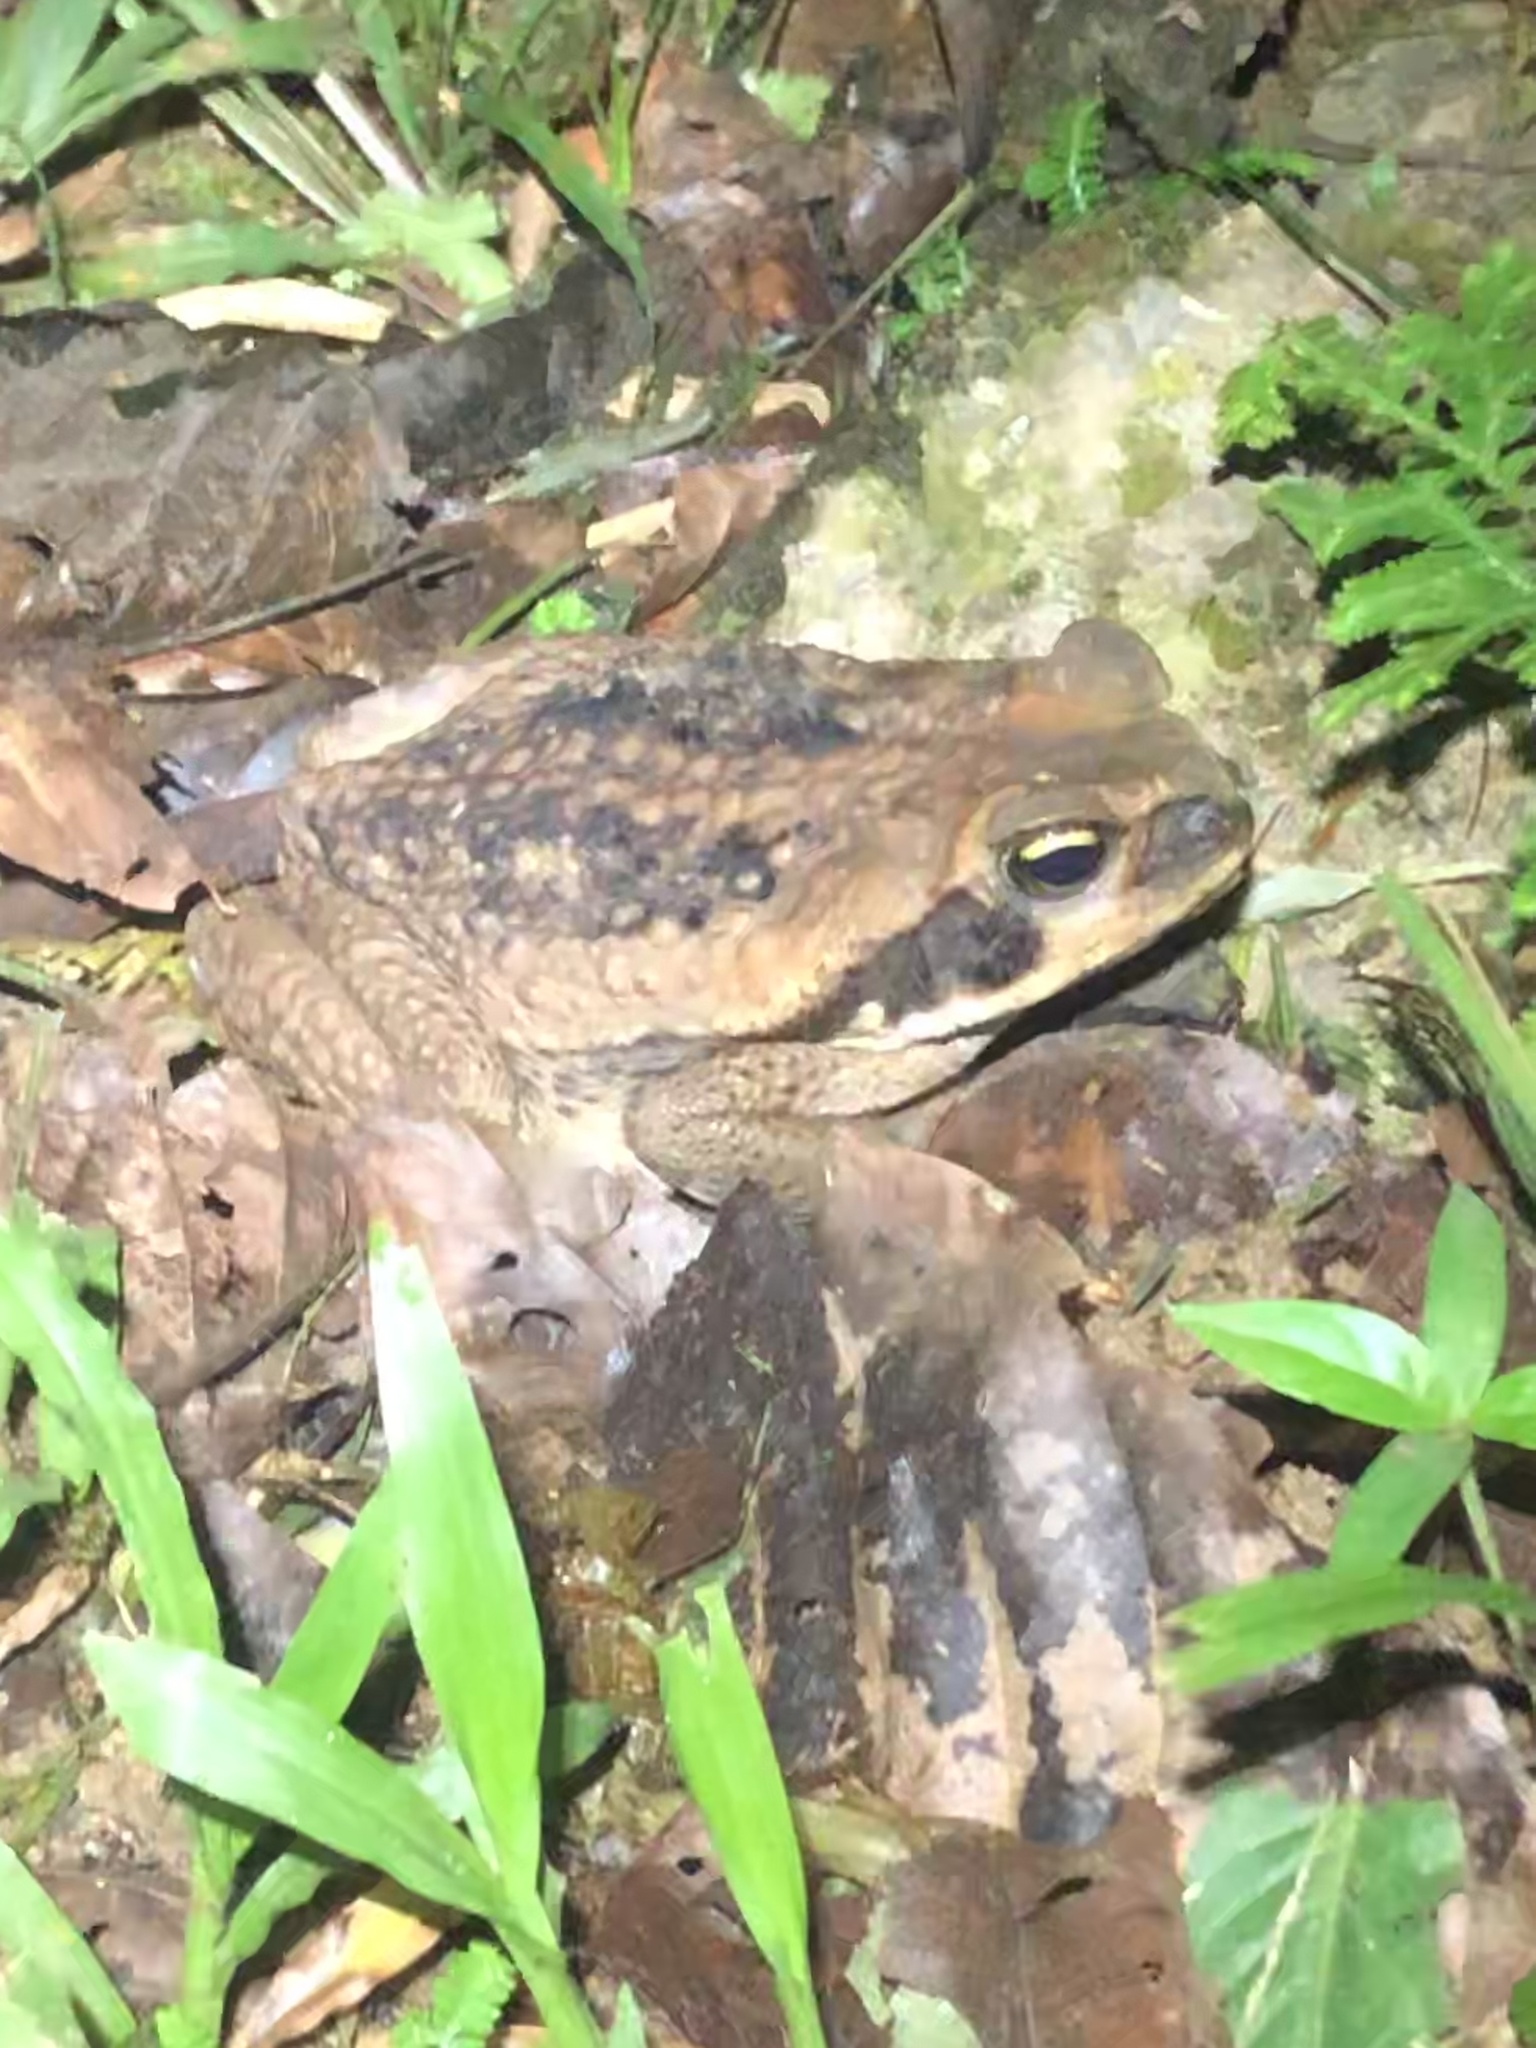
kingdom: Animalia
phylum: Chordata
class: Amphibia
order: Anura
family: Bufonidae
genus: Rhinella
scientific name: Rhinella marina
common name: Cane toad
